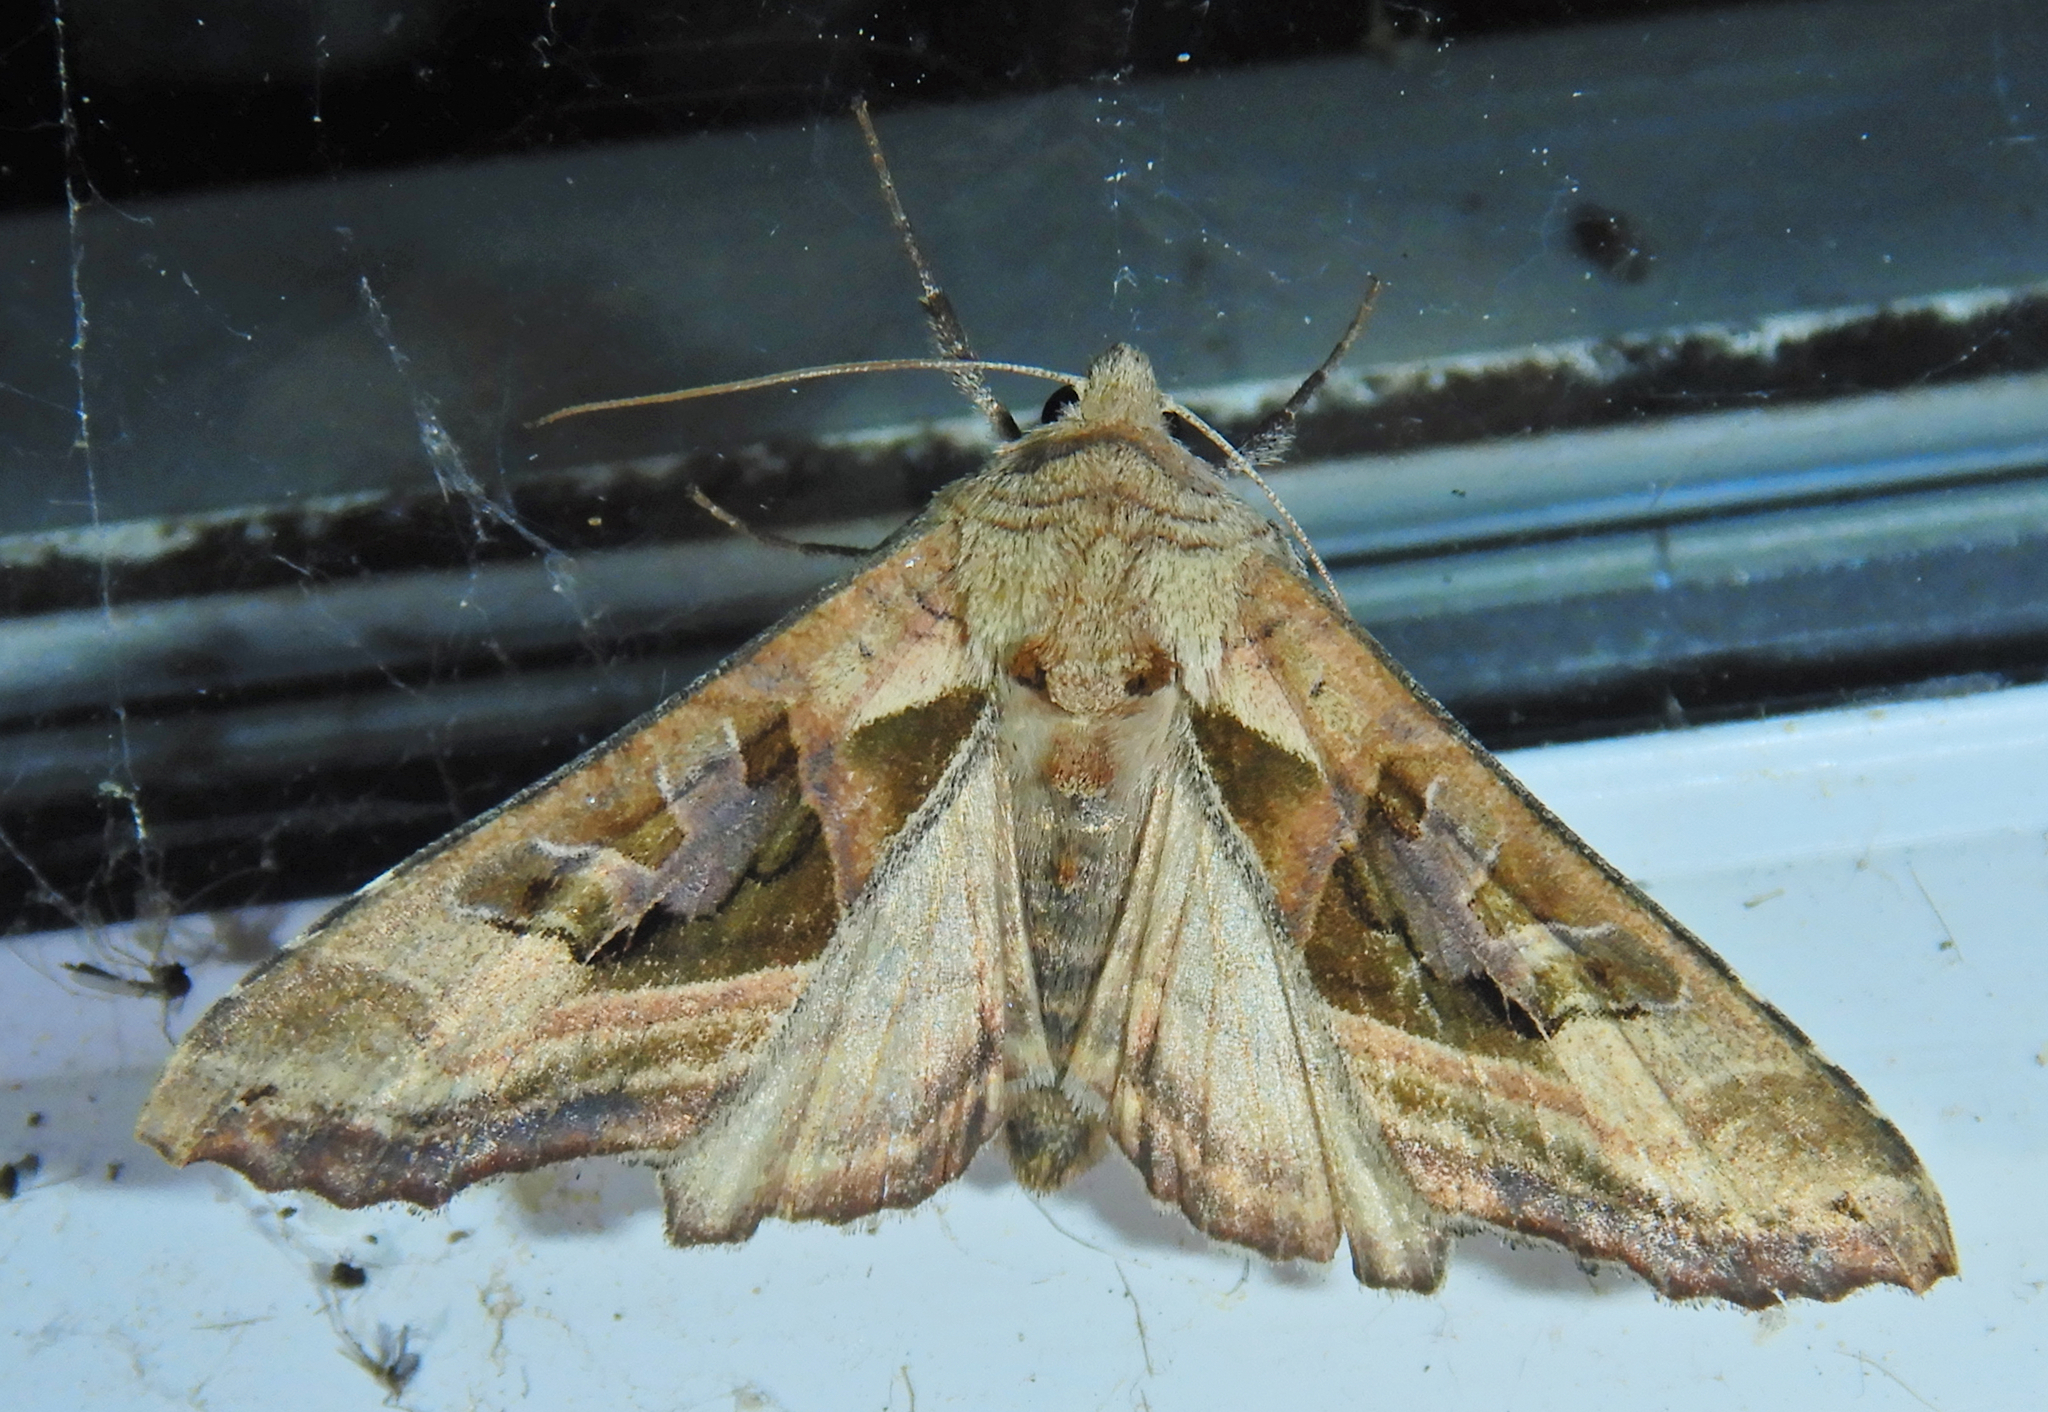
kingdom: Animalia
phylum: Arthropoda
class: Insecta
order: Lepidoptera
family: Noctuidae
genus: Phlogophora
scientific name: Phlogophora iris
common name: Olive angle shades
